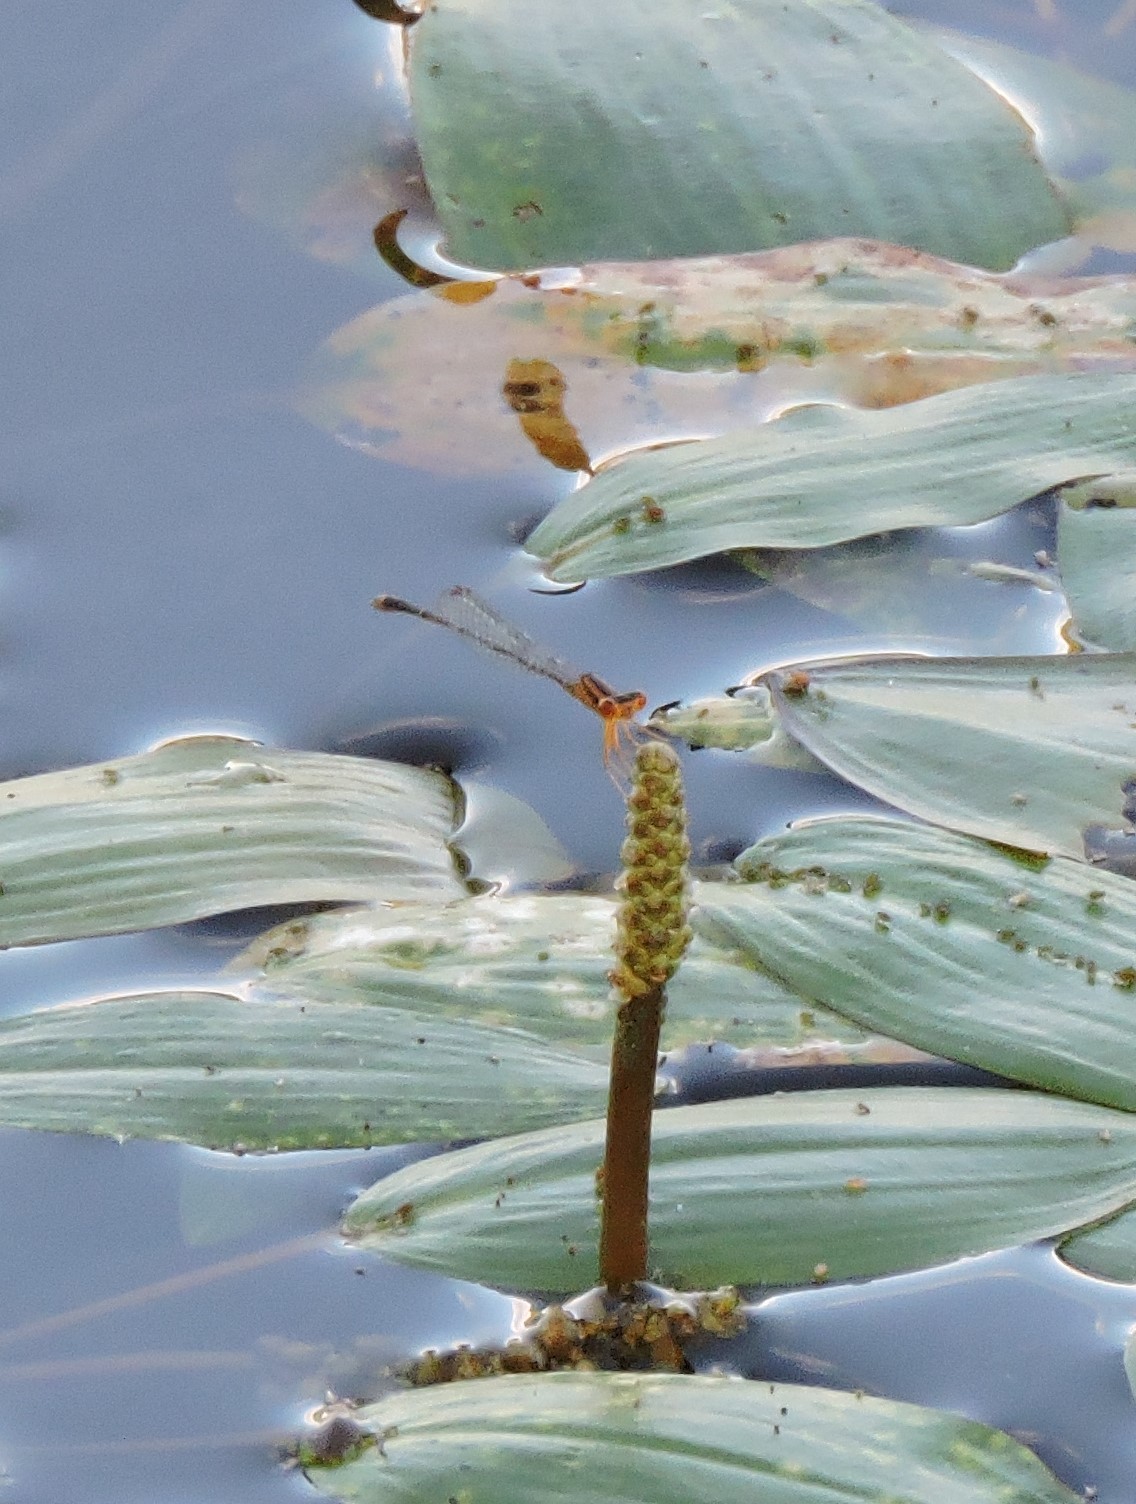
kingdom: Animalia
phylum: Arthropoda
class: Insecta
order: Odonata
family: Coenagrionidae
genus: Enallagma
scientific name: Enallagma signatum
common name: Orange bluet
